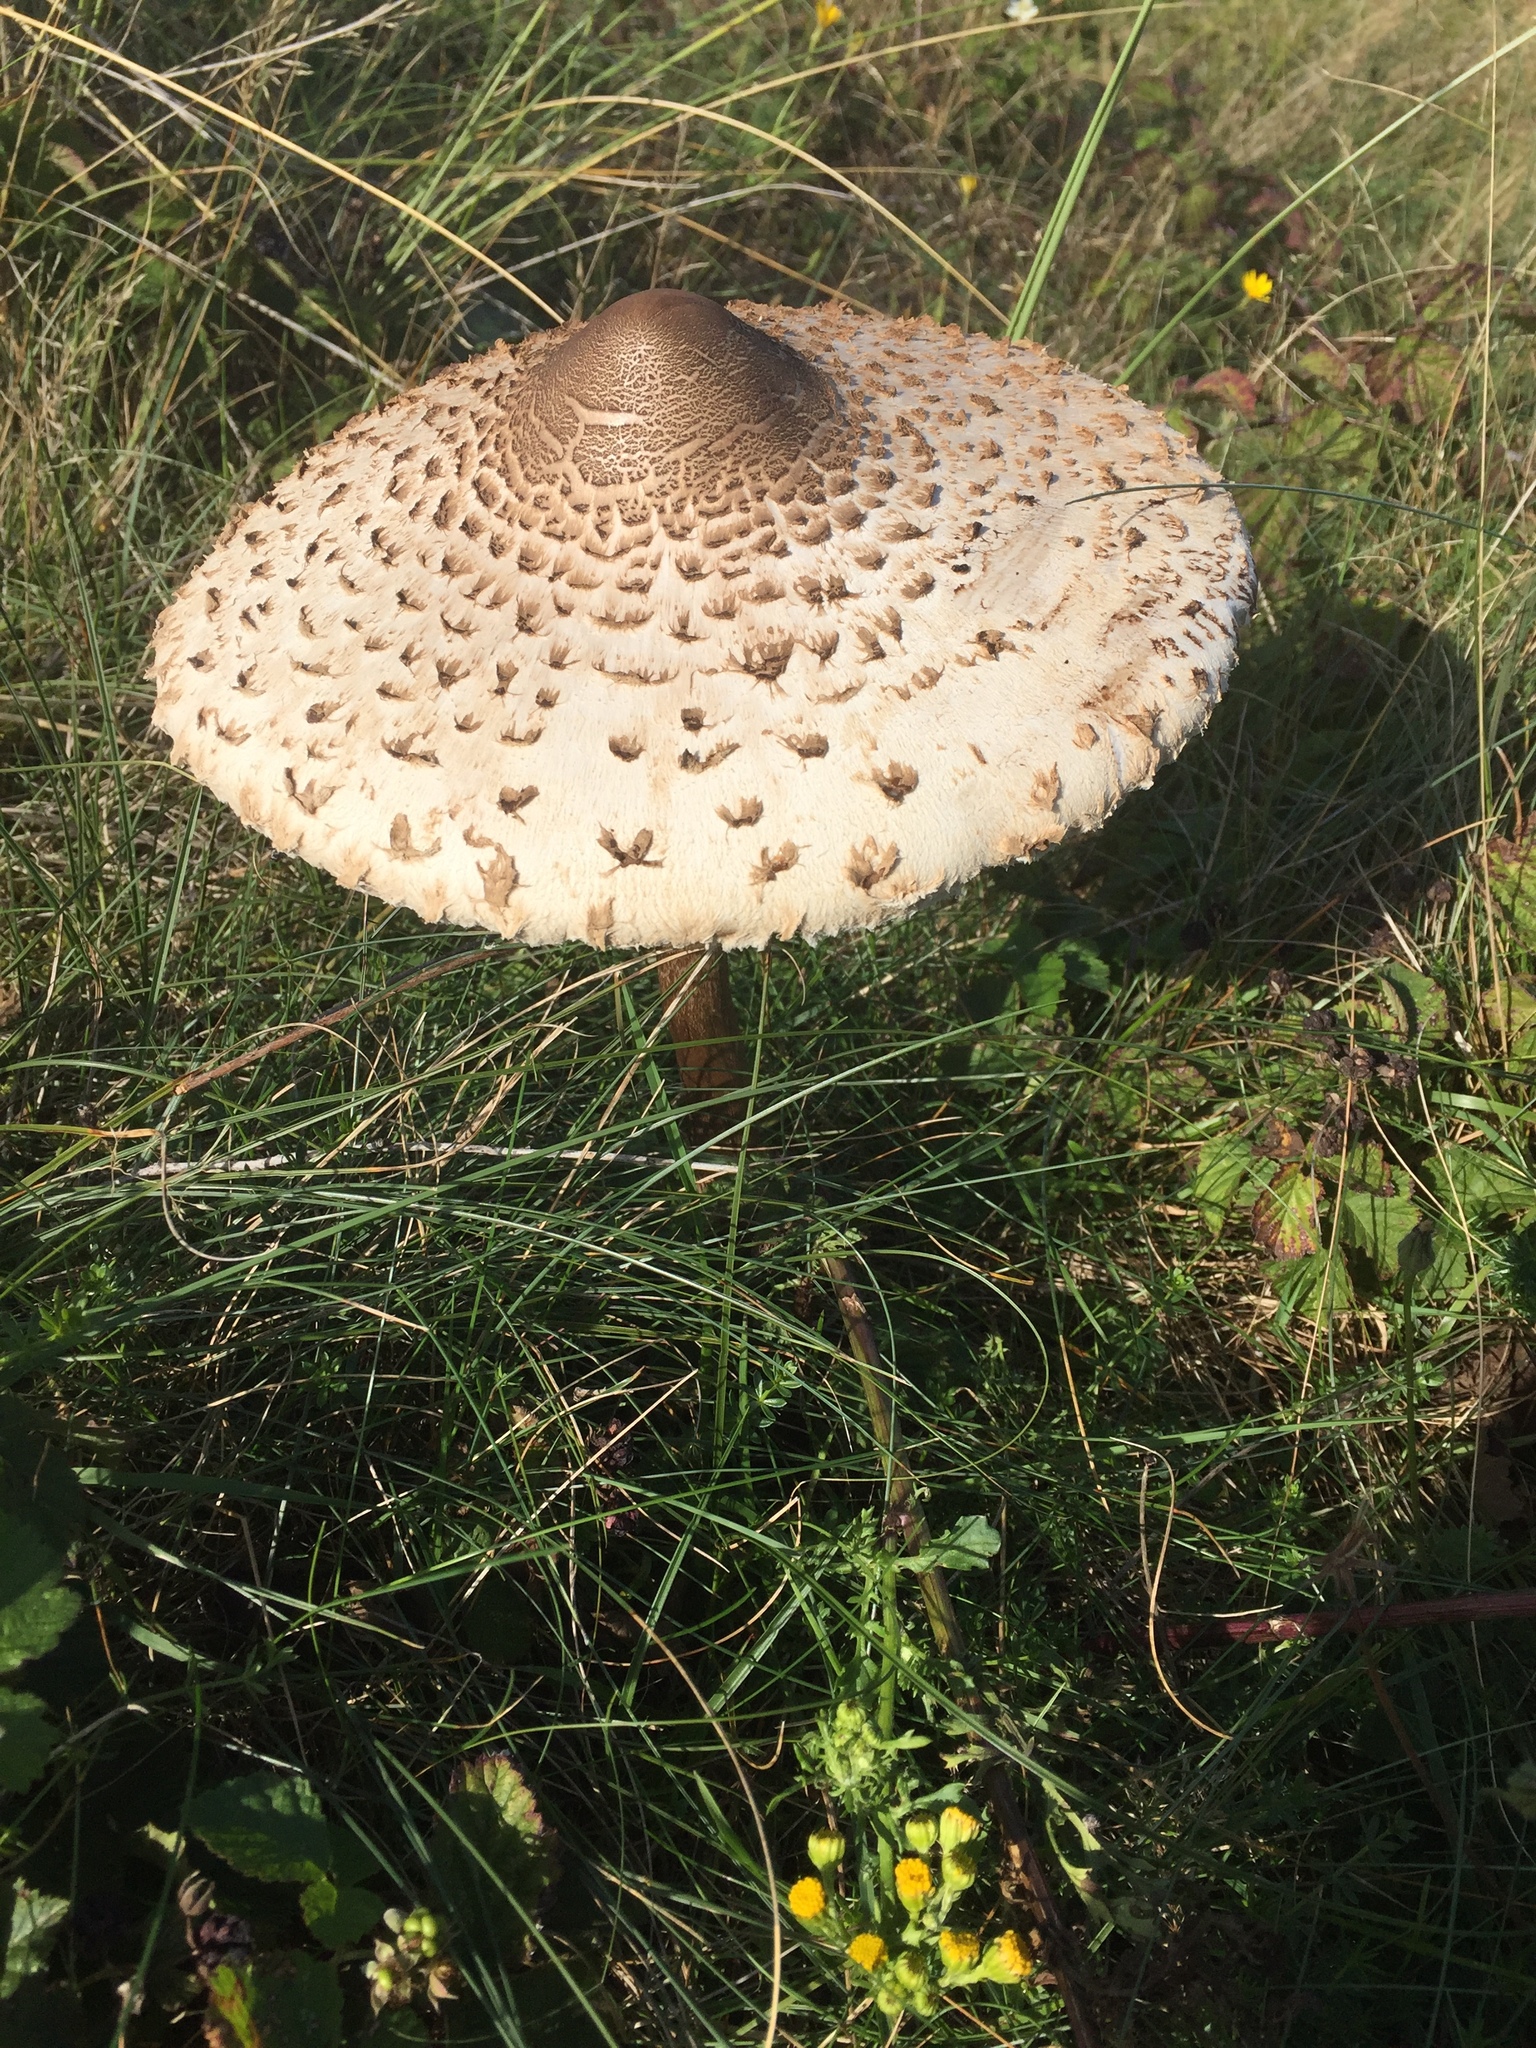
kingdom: Fungi
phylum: Basidiomycota
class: Agaricomycetes
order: Agaricales
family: Agaricaceae
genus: Macrolepiota
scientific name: Macrolepiota procera
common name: Parasol
